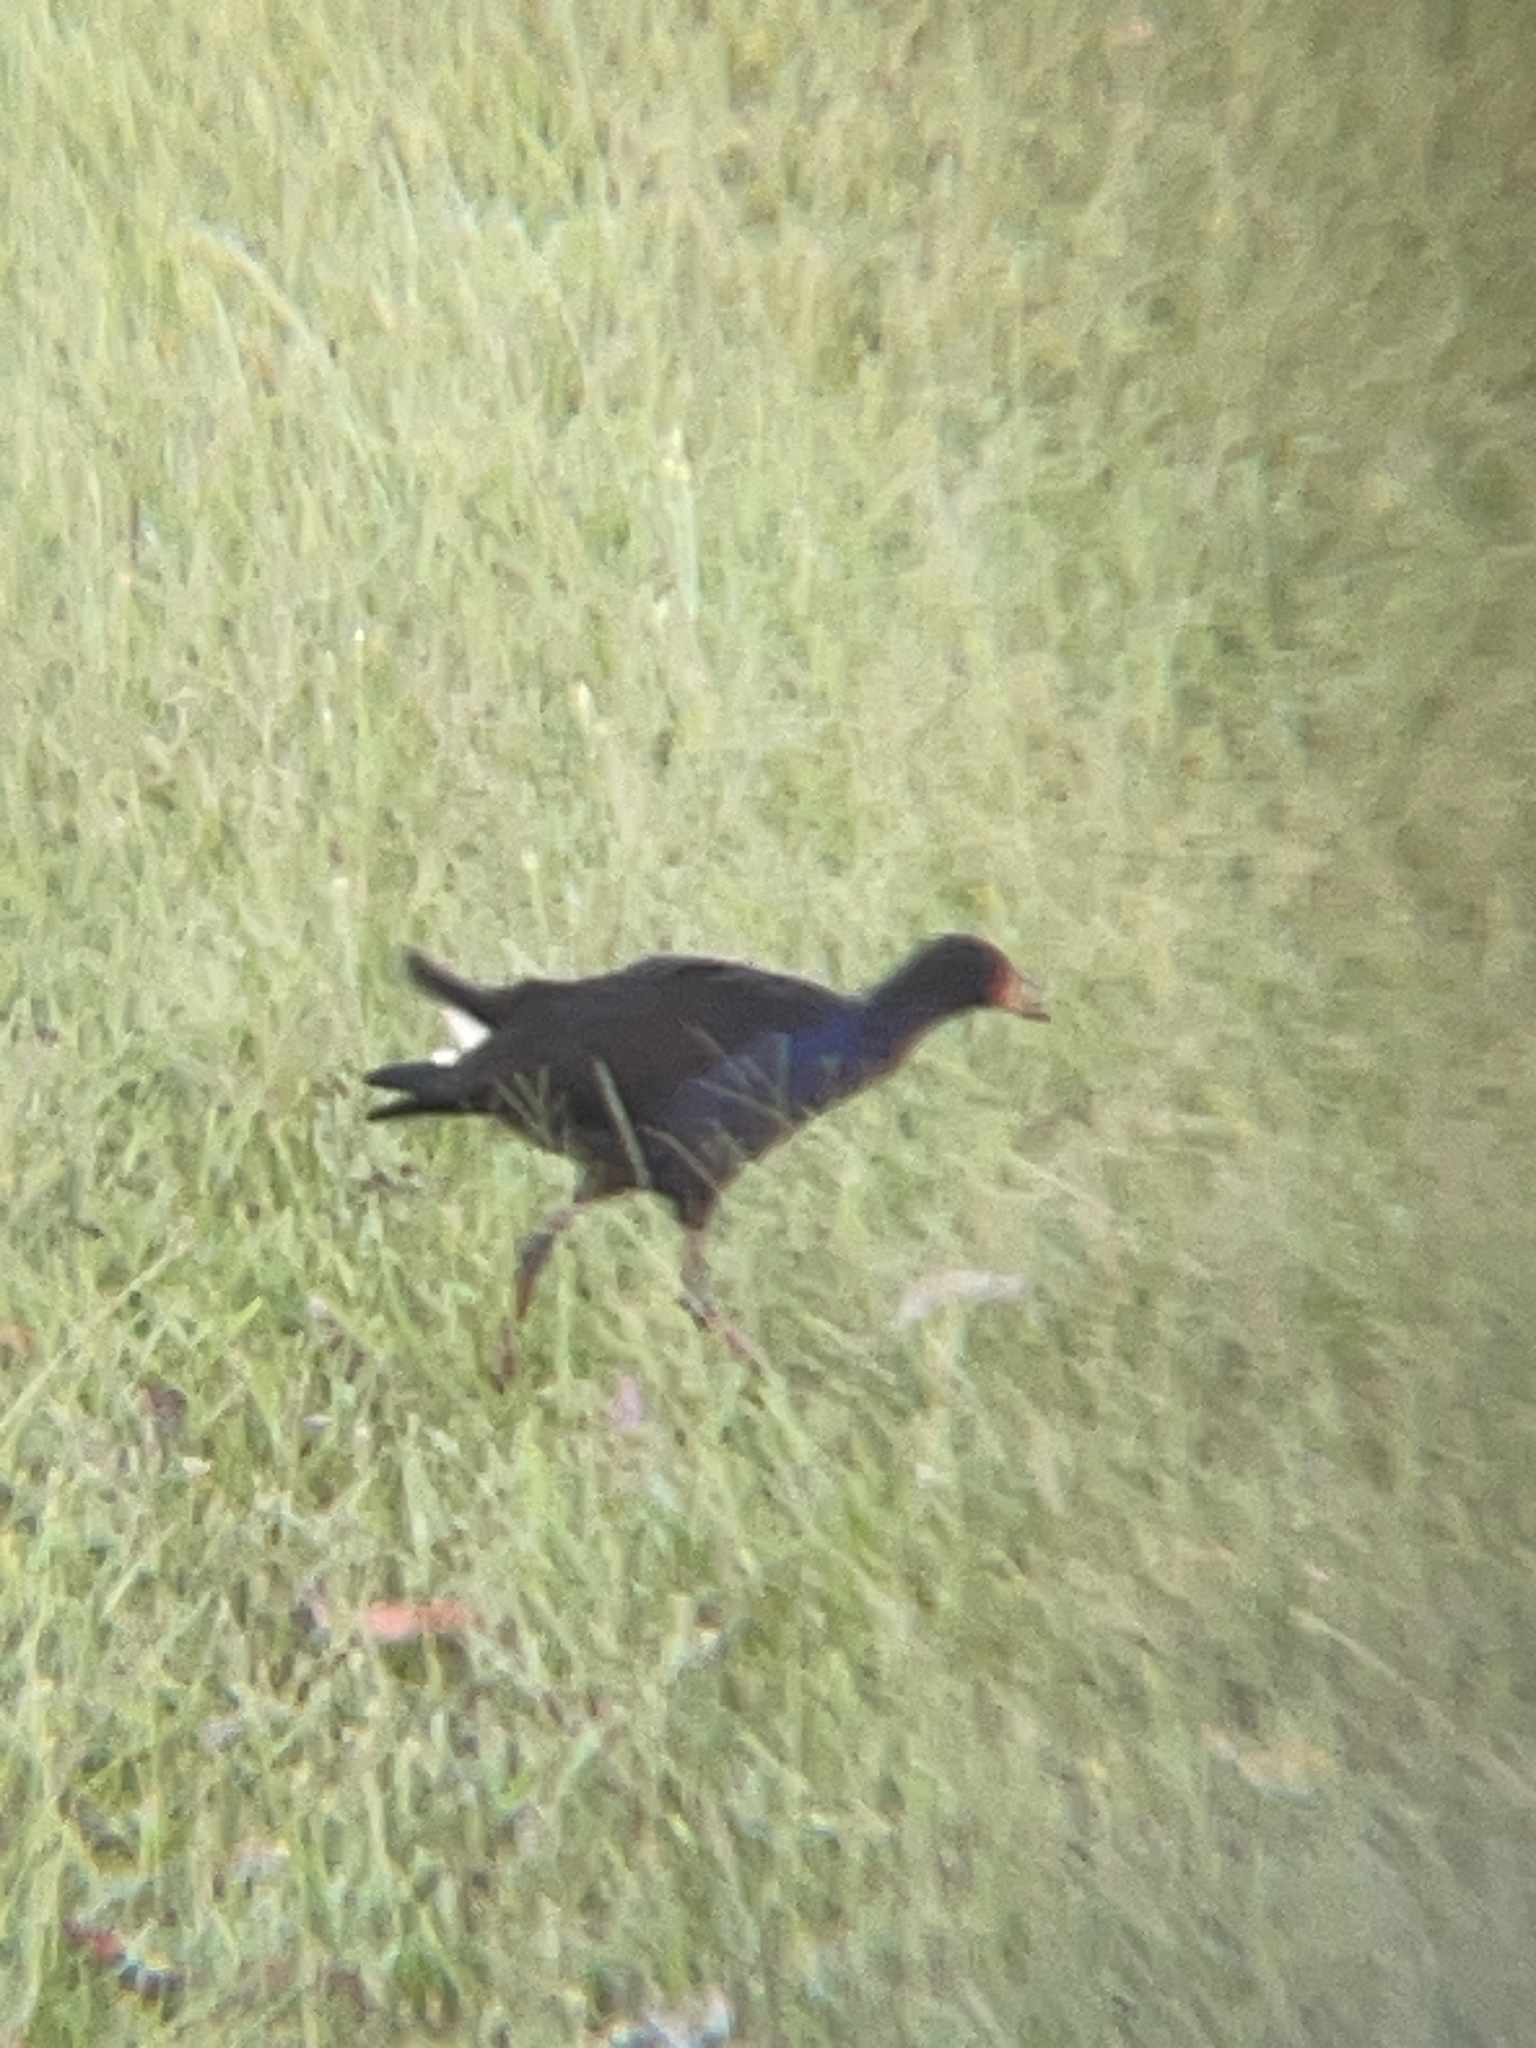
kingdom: Animalia
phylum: Chordata
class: Aves
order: Gruiformes
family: Rallidae
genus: Porphyrio
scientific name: Porphyrio melanotus
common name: Australasian swamphen
